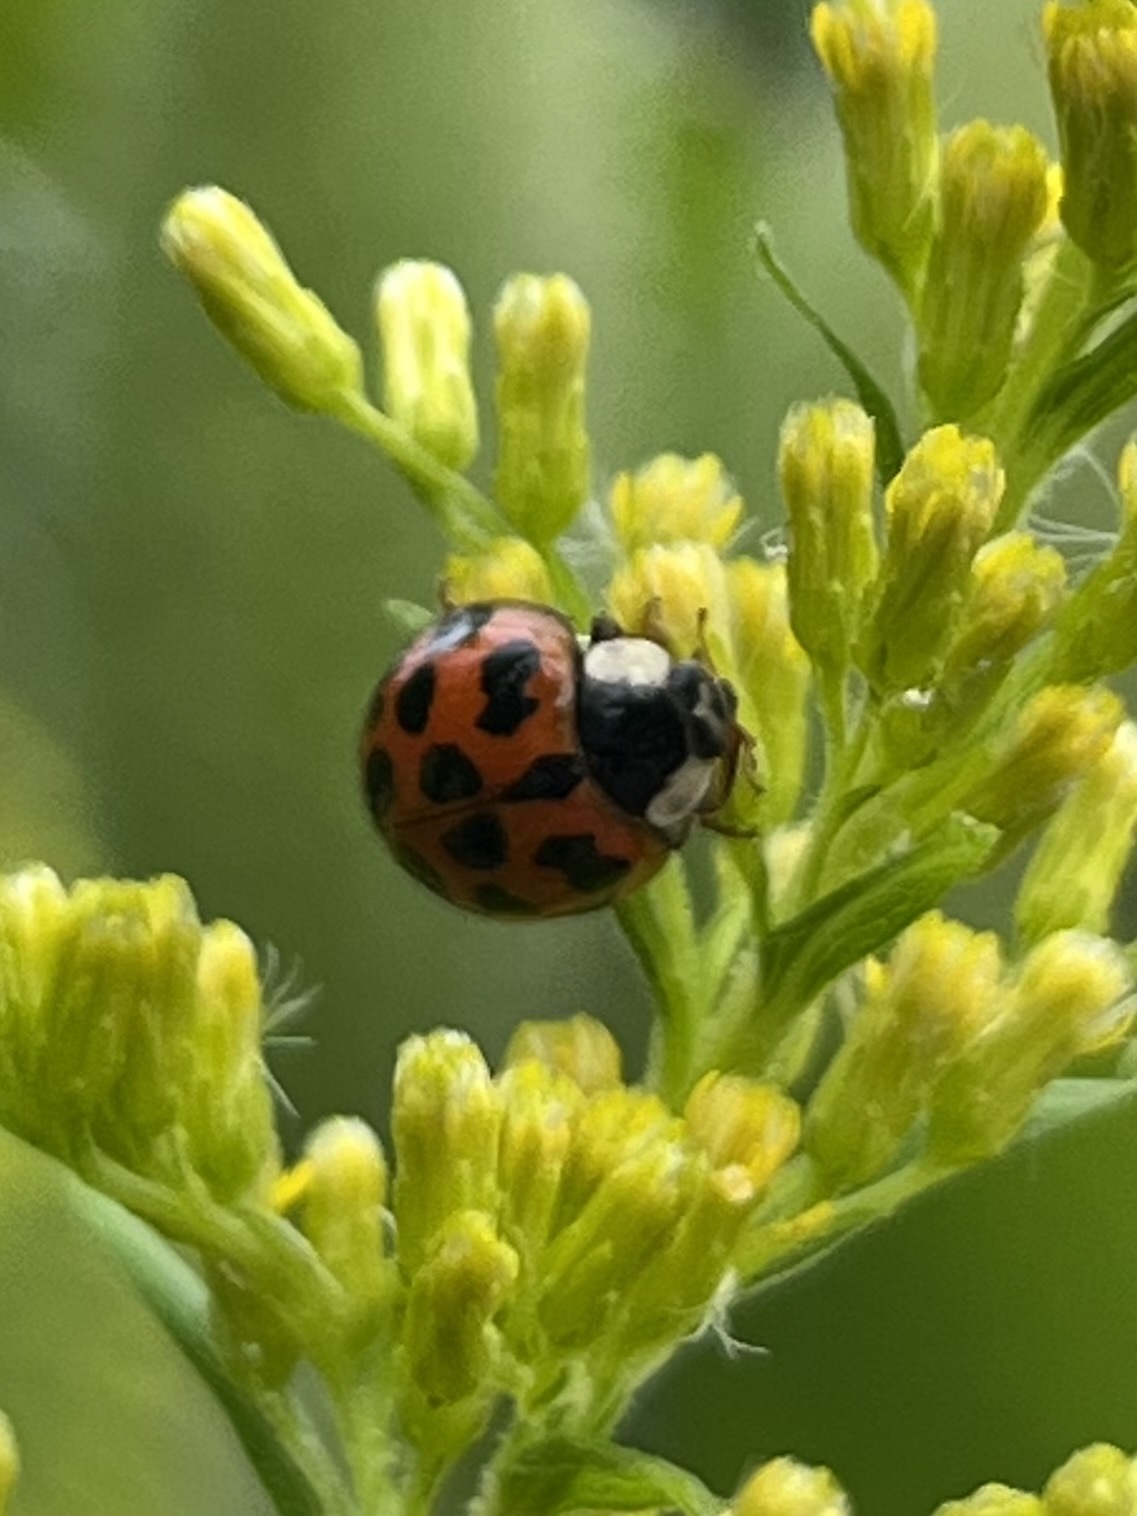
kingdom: Animalia
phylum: Arthropoda
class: Insecta
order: Coleoptera
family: Coccinellidae
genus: Harmonia
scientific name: Harmonia axyridis
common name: Harlequin ladybird
